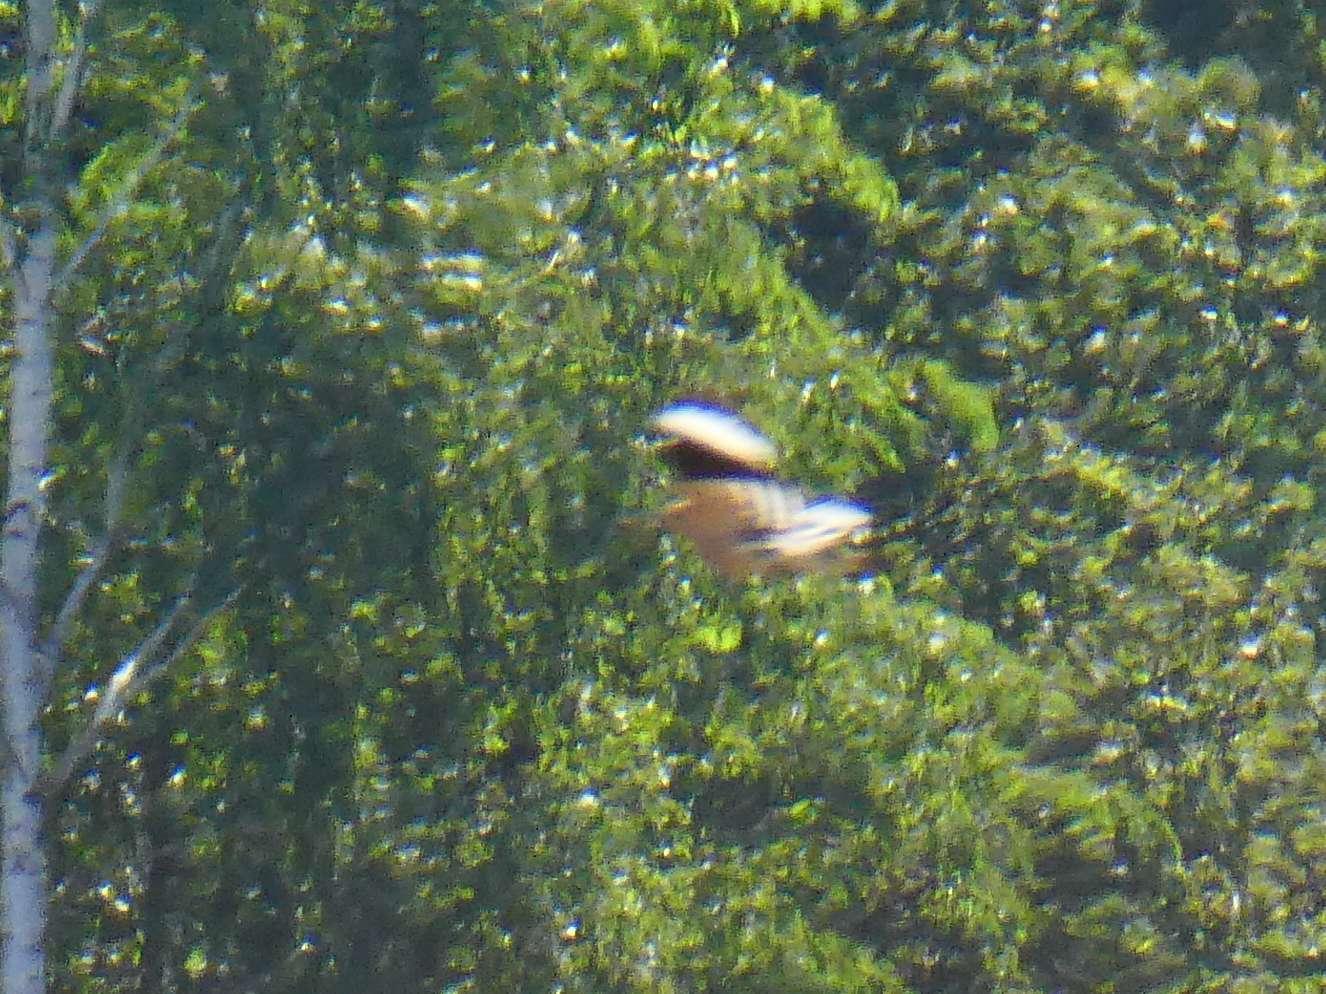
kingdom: Animalia
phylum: Chordata
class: Aves
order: Bucerotiformes
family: Upupidae
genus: Upupa
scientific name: Upupa epops
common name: Eurasian hoopoe
